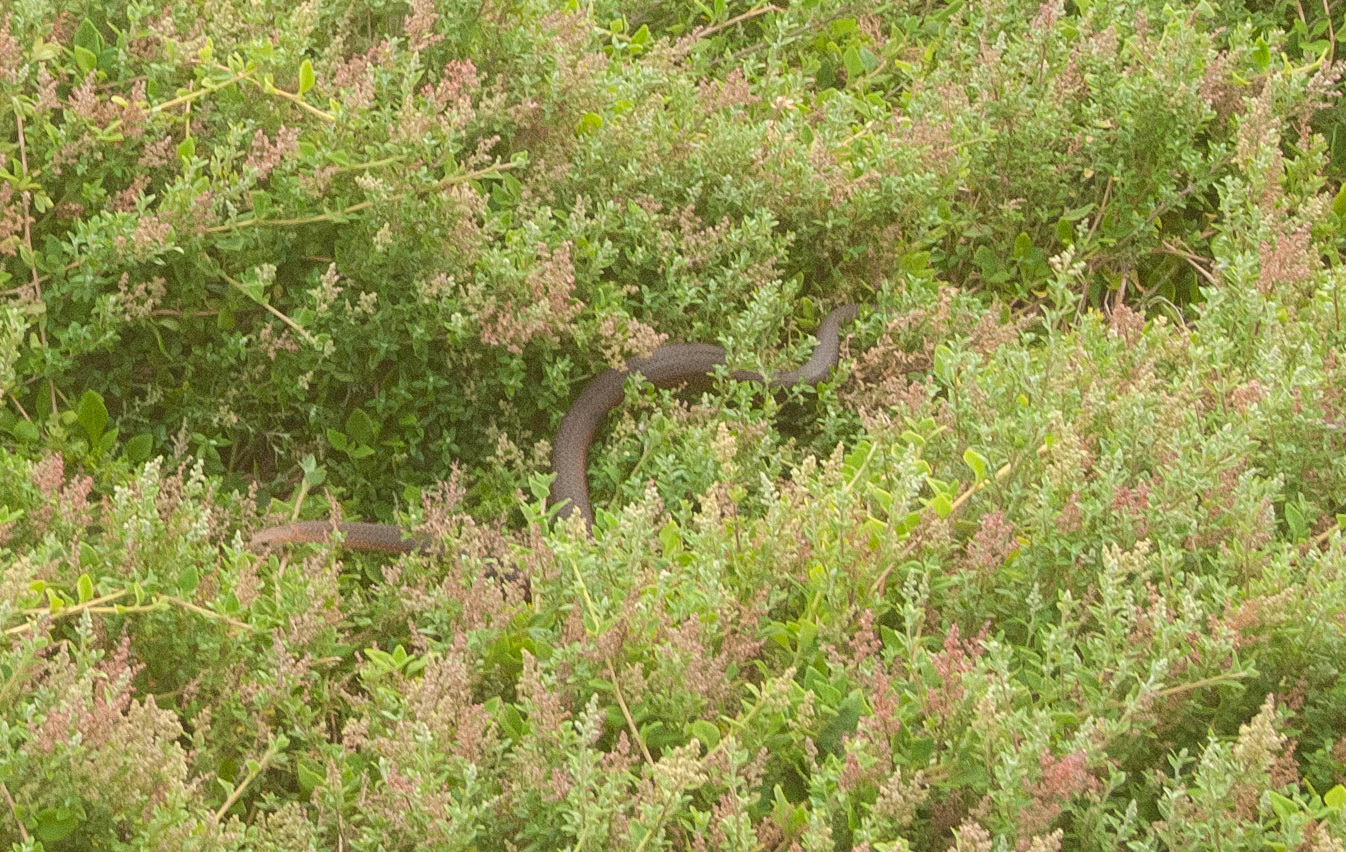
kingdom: Animalia
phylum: Chordata
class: Squamata
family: Elapidae
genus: Austrelaps
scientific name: Austrelaps superbus
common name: Copperhead snake
